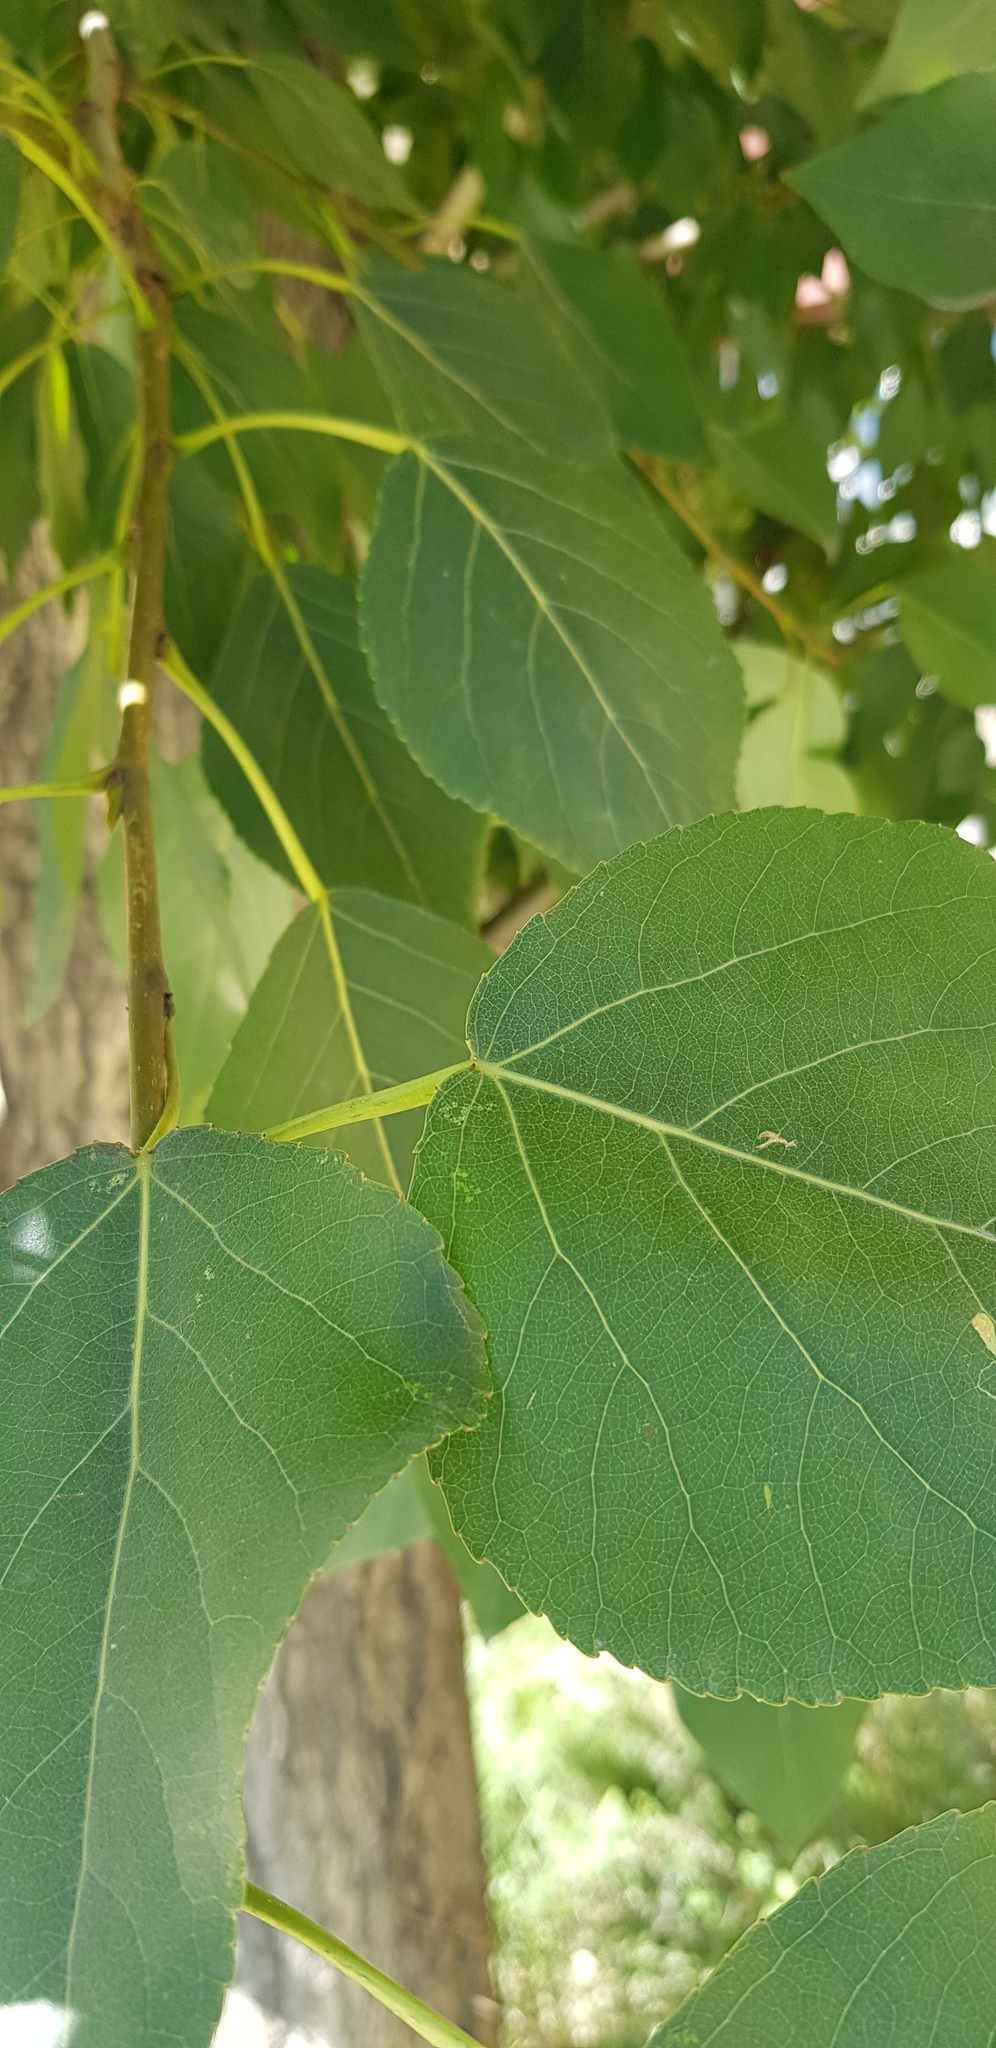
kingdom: Plantae
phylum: Tracheophyta
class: Magnoliopsida
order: Malpighiales
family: Salicaceae
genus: Populus
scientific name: Populus laurifolia
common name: Laurel-leaf poplar
